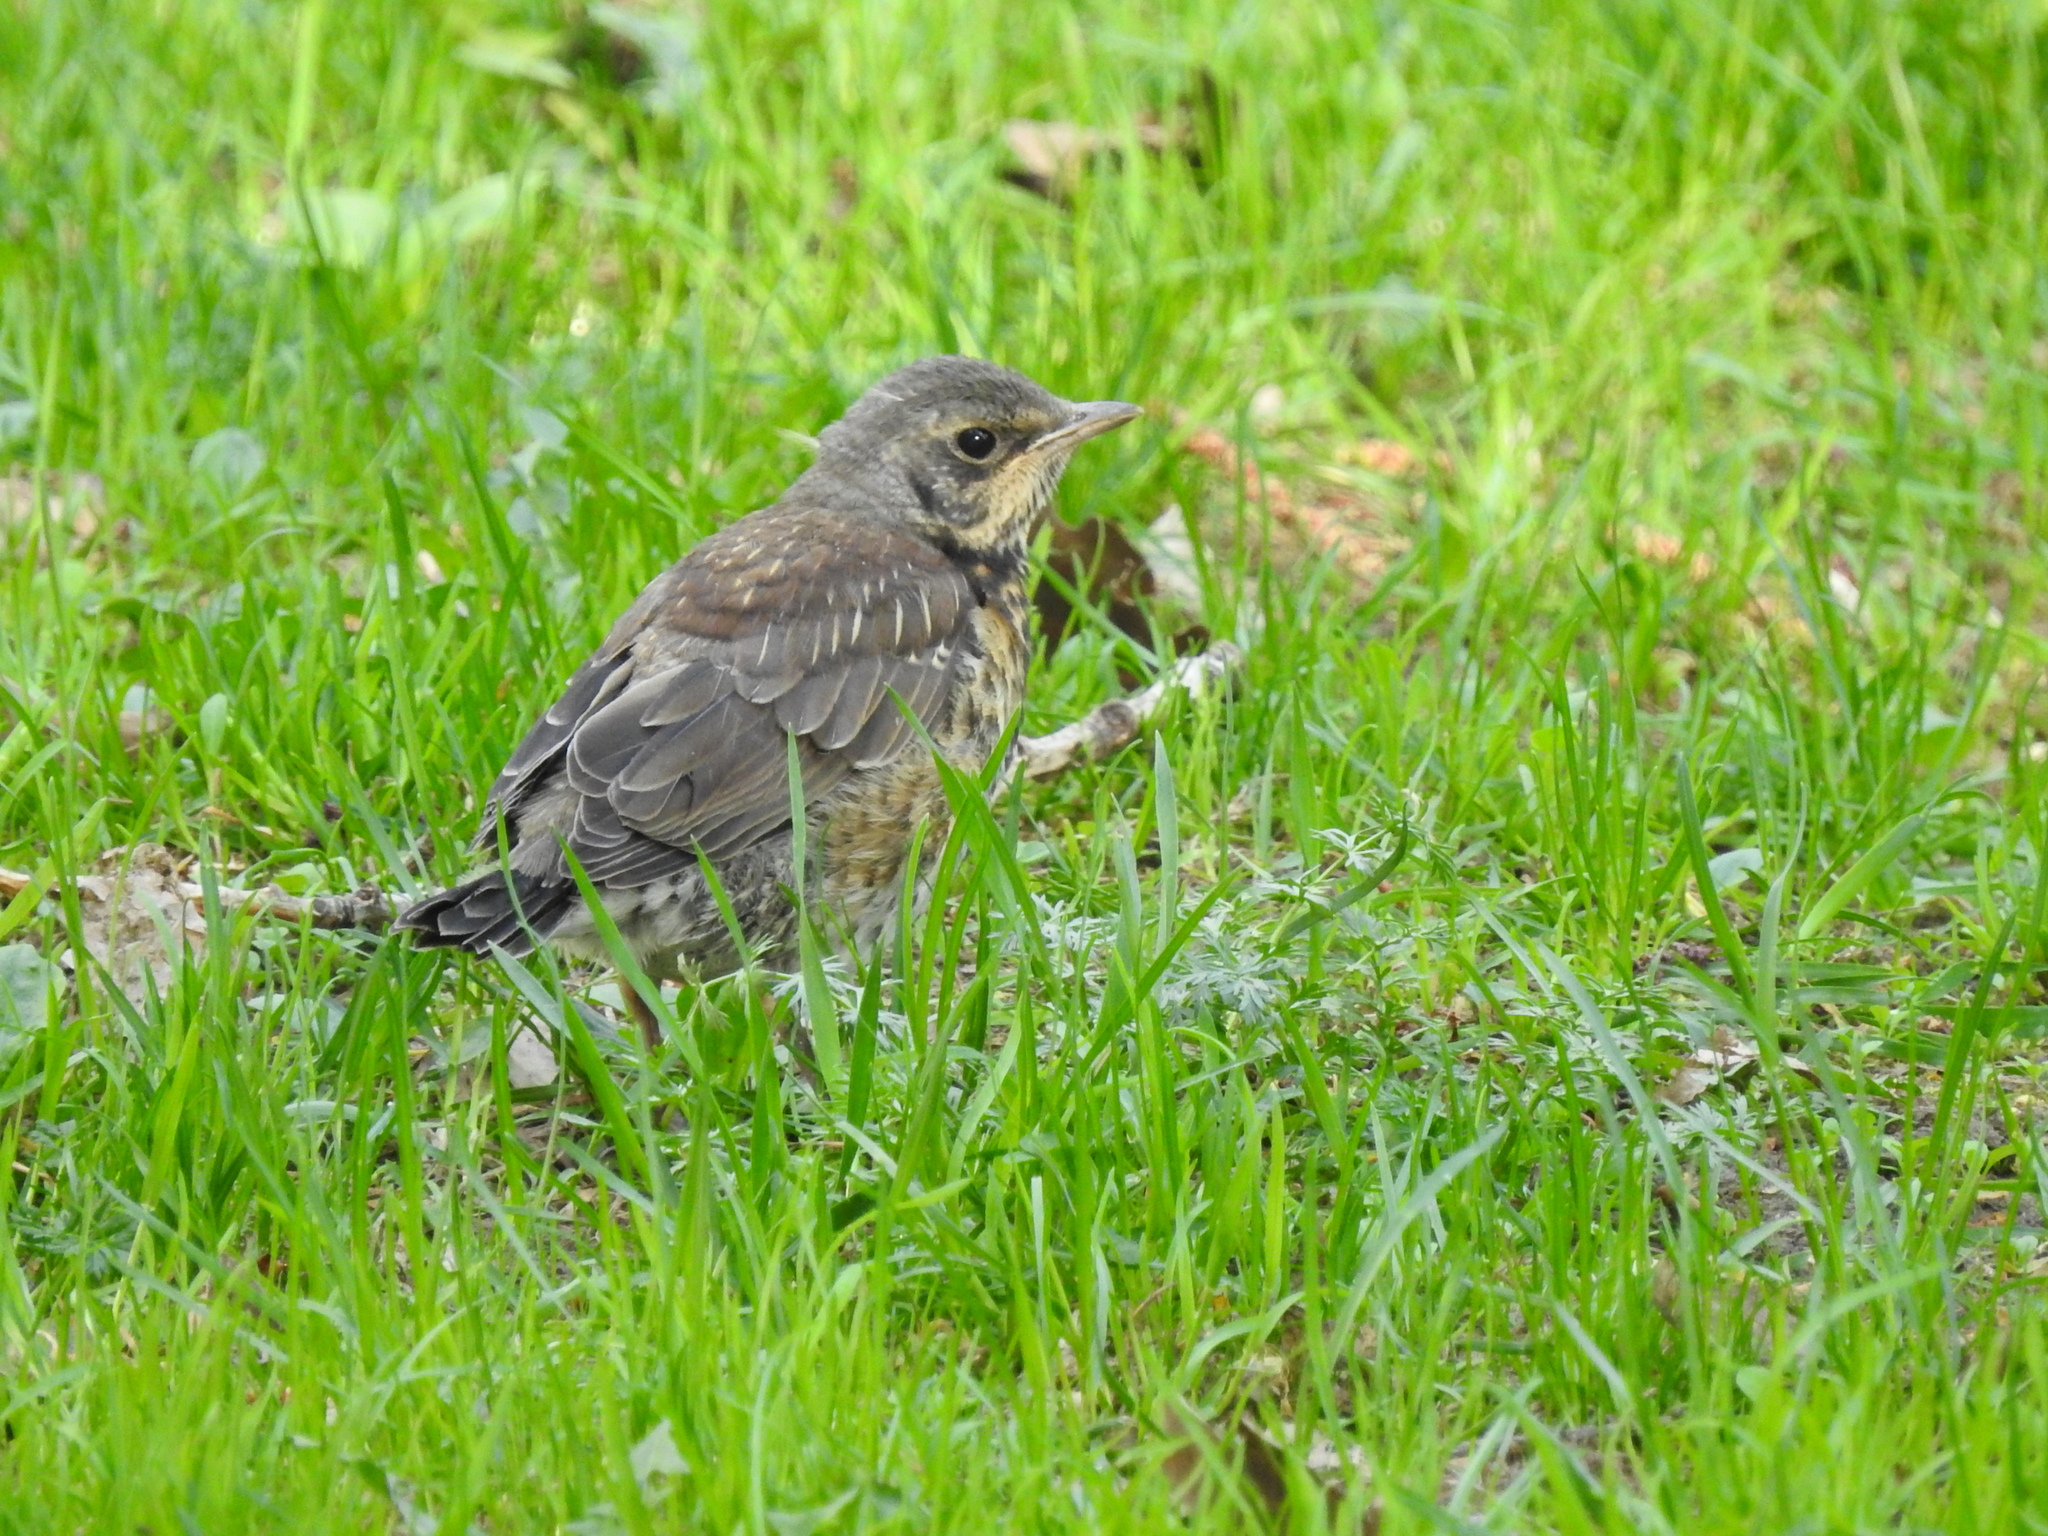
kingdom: Animalia
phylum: Chordata
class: Aves
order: Passeriformes
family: Turdidae
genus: Turdus
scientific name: Turdus pilaris
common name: Fieldfare
